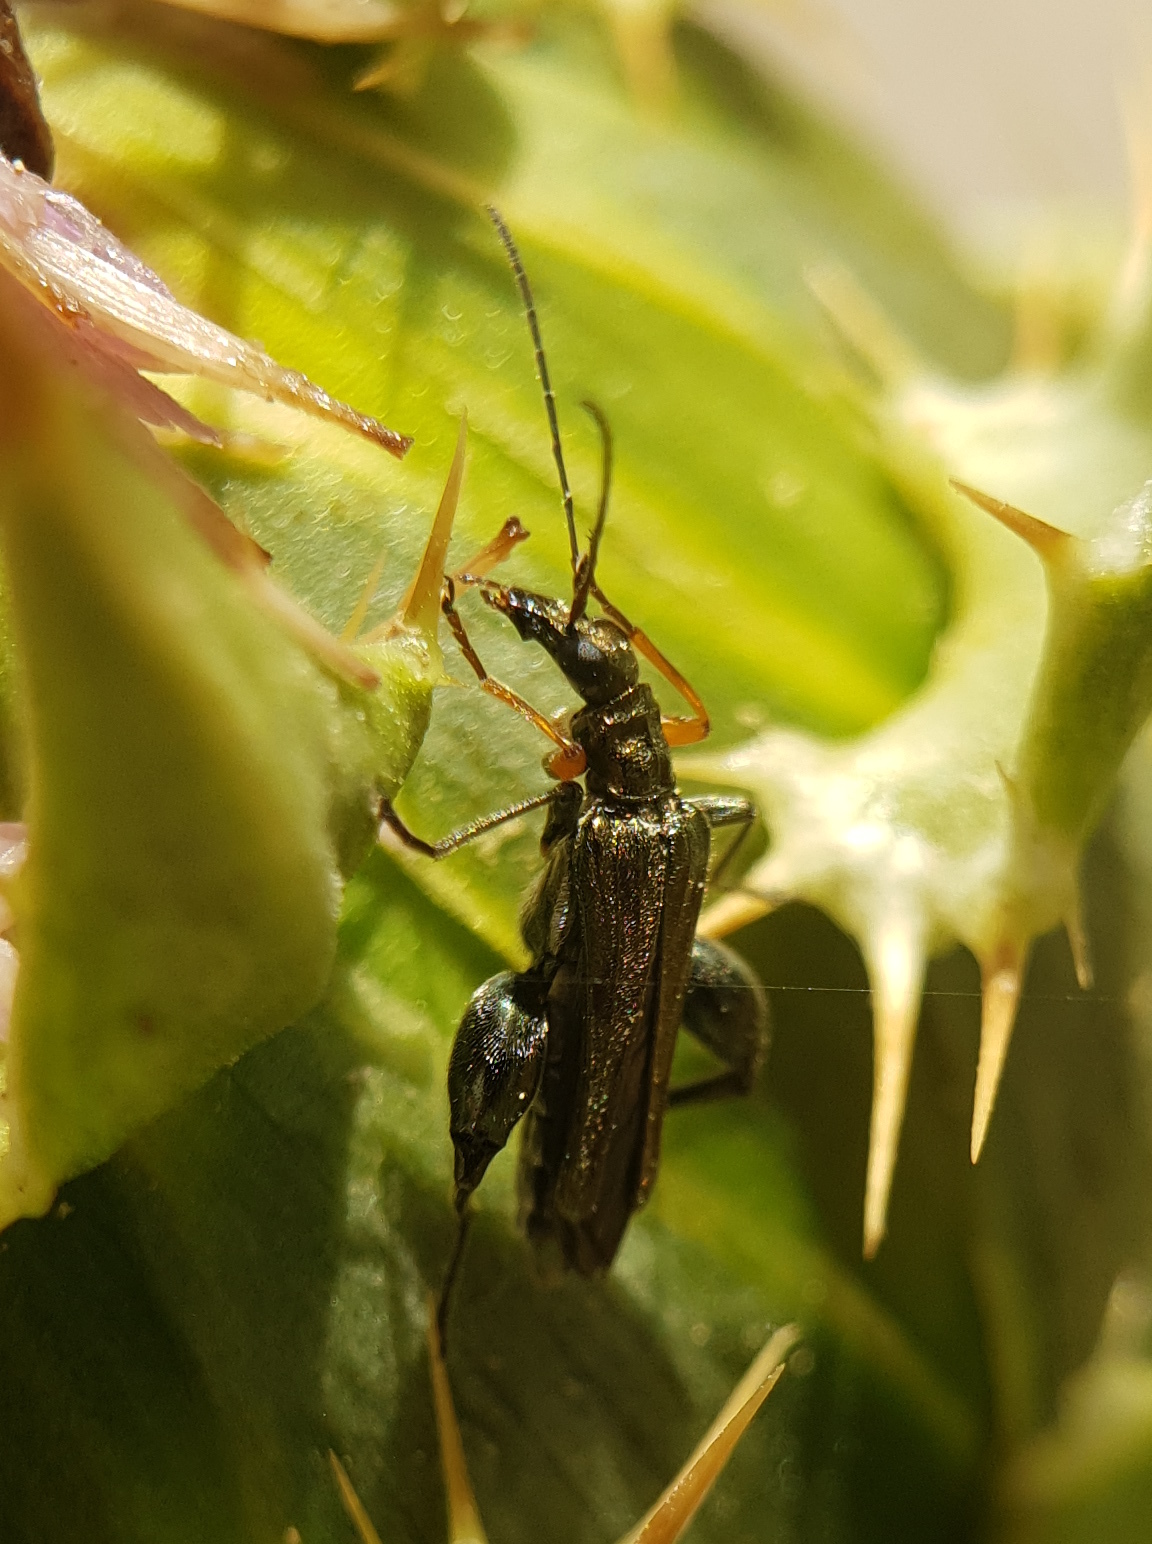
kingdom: Animalia
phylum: Arthropoda
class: Insecta
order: Coleoptera
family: Oedemeridae
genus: Oedemera
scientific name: Oedemera flavipes
